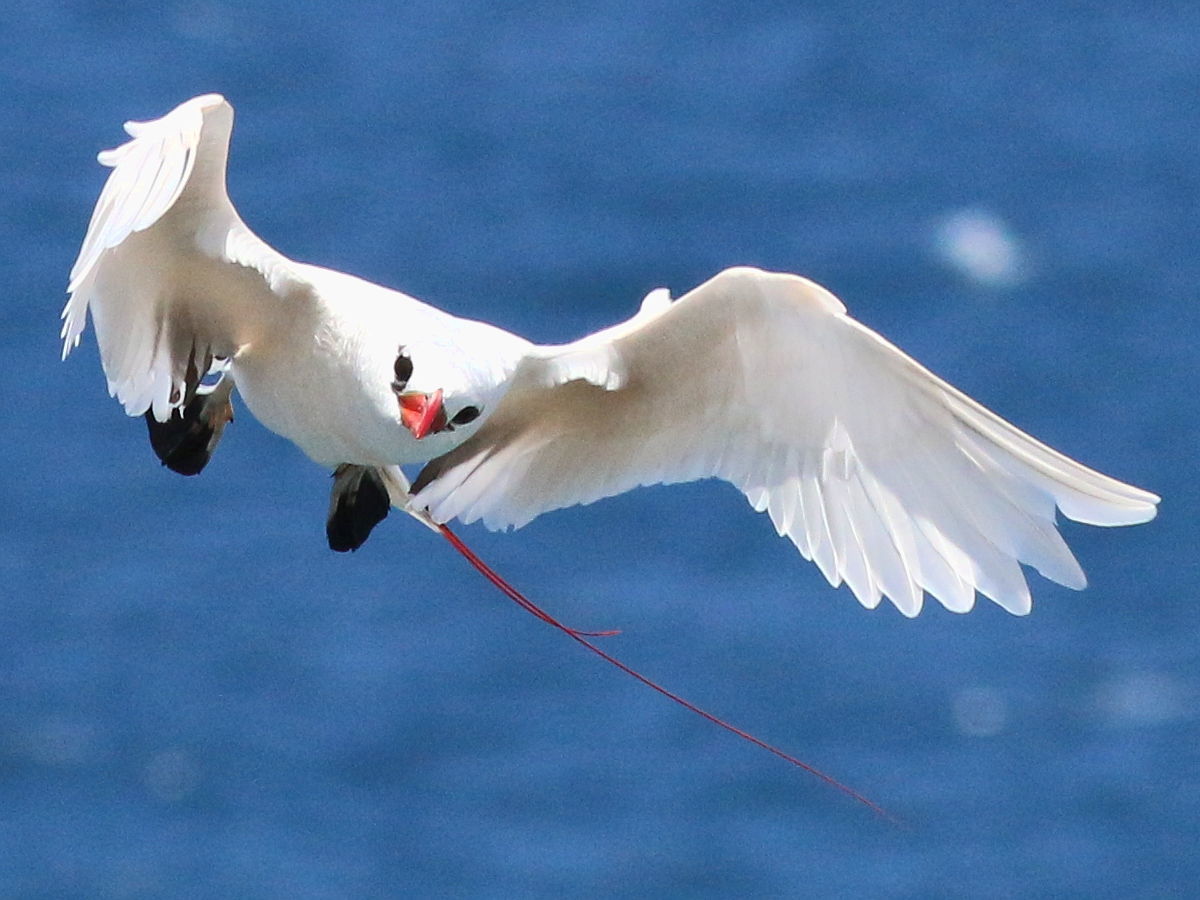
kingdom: Animalia
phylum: Chordata
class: Aves
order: Phaethontiformes
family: Phaethontidae
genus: Phaethon
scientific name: Phaethon rubricauda
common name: Red-tailed tropicbird
